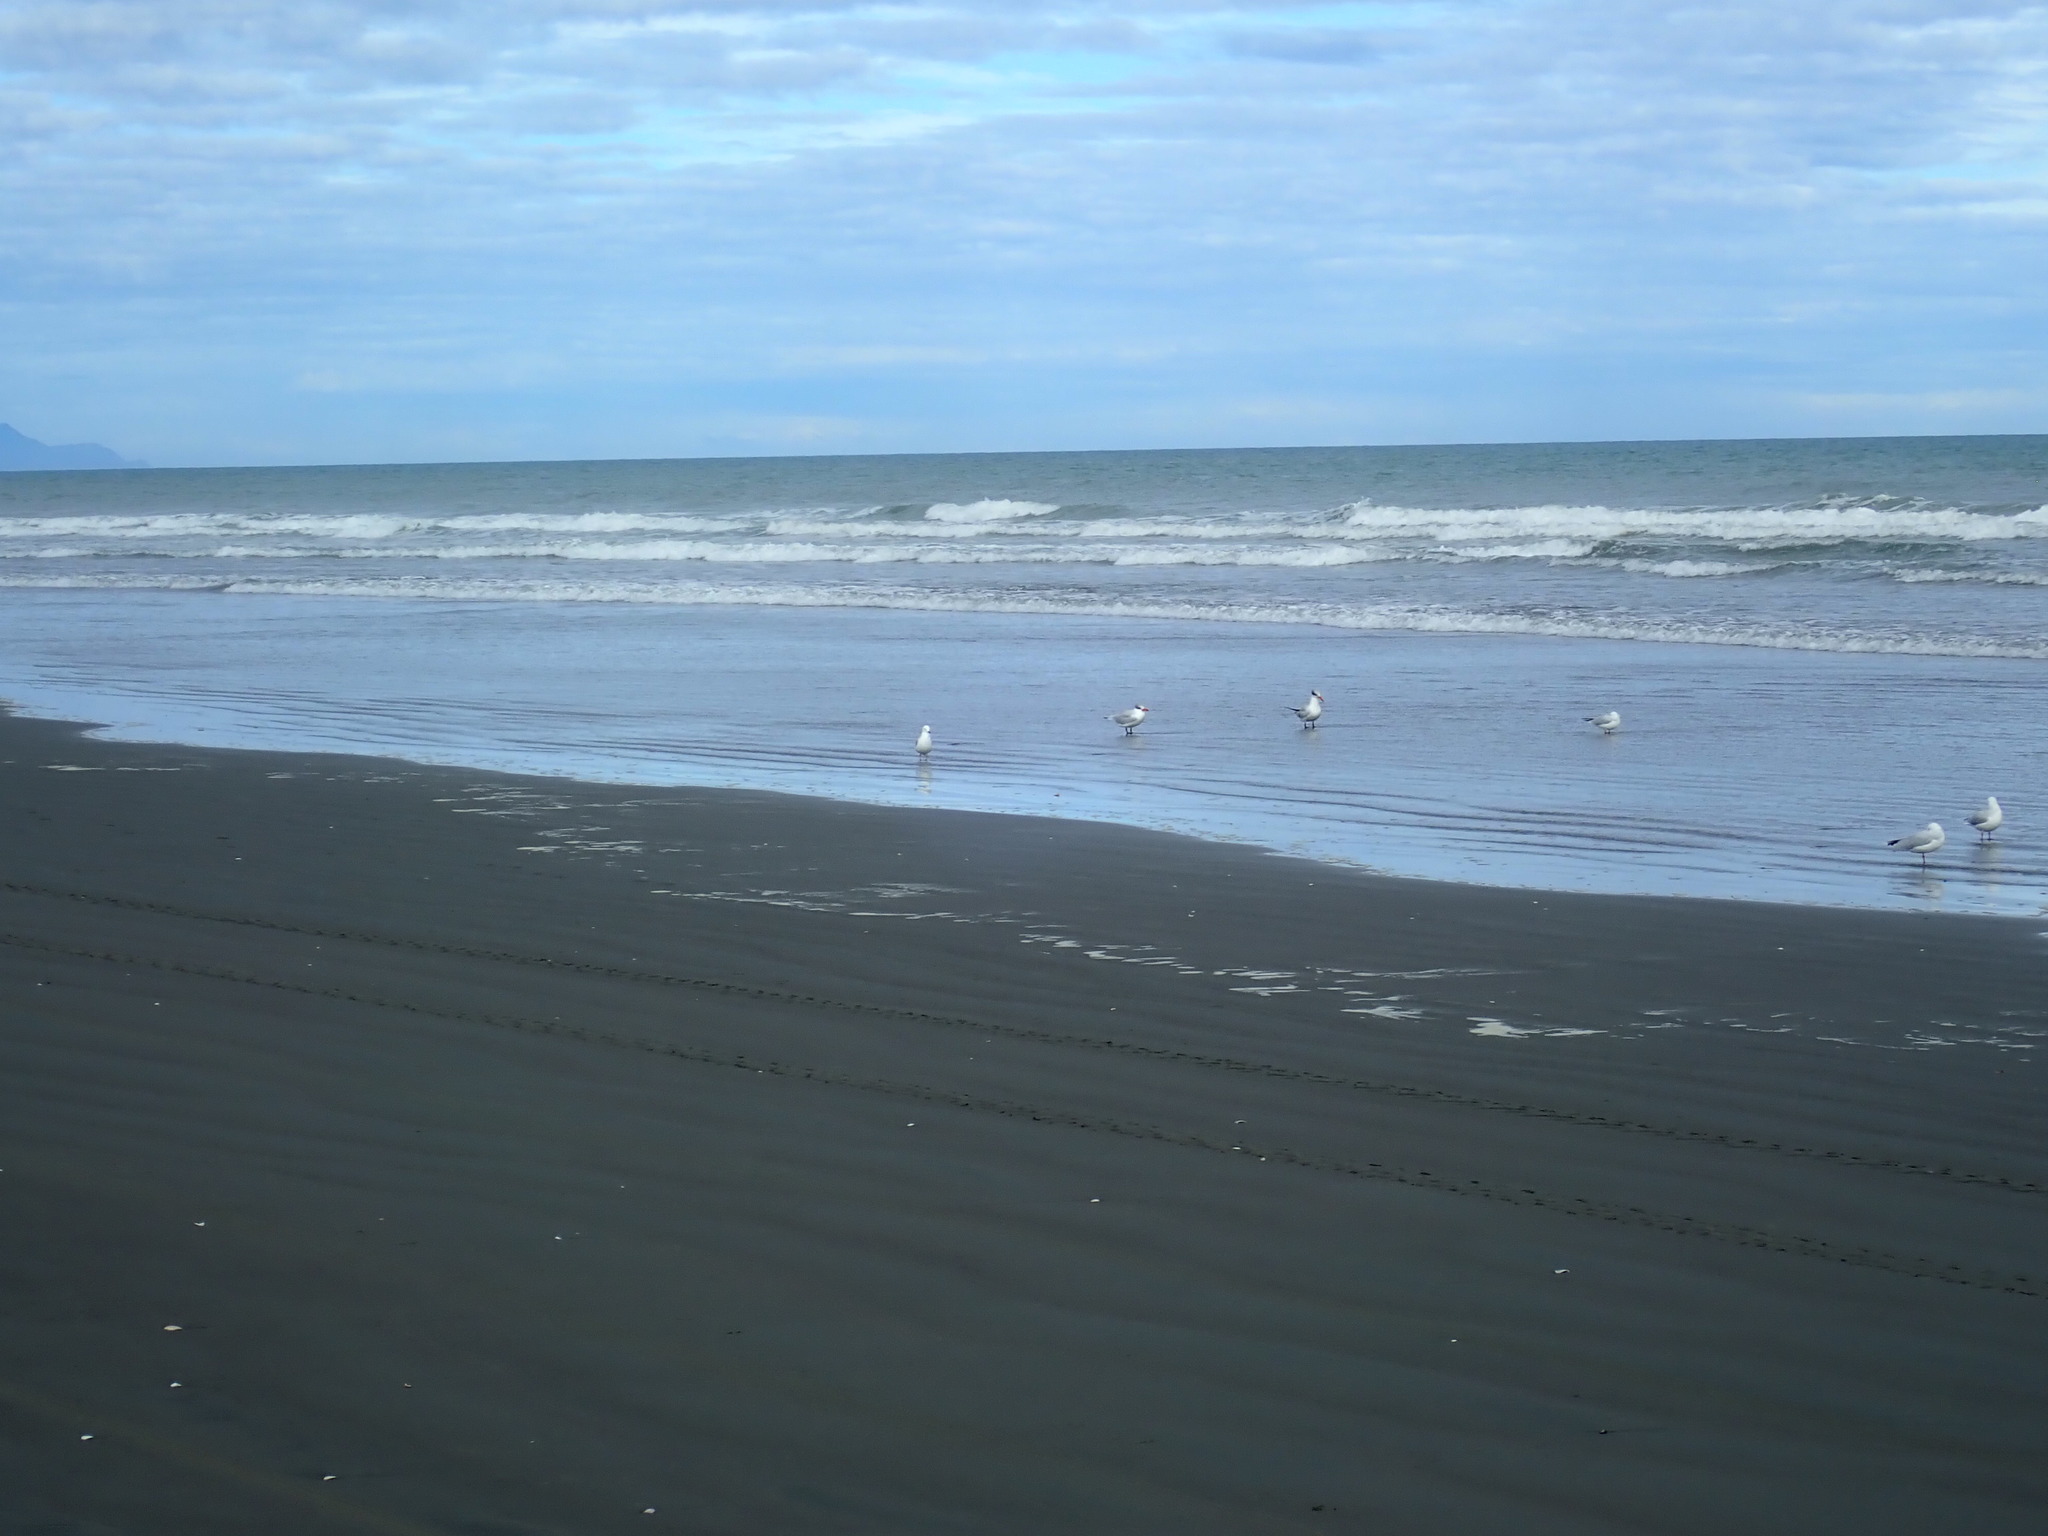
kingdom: Animalia
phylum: Chordata
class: Aves
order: Charadriiformes
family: Laridae
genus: Hydroprogne
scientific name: Hydroprogne caspia
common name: Caspian tern
